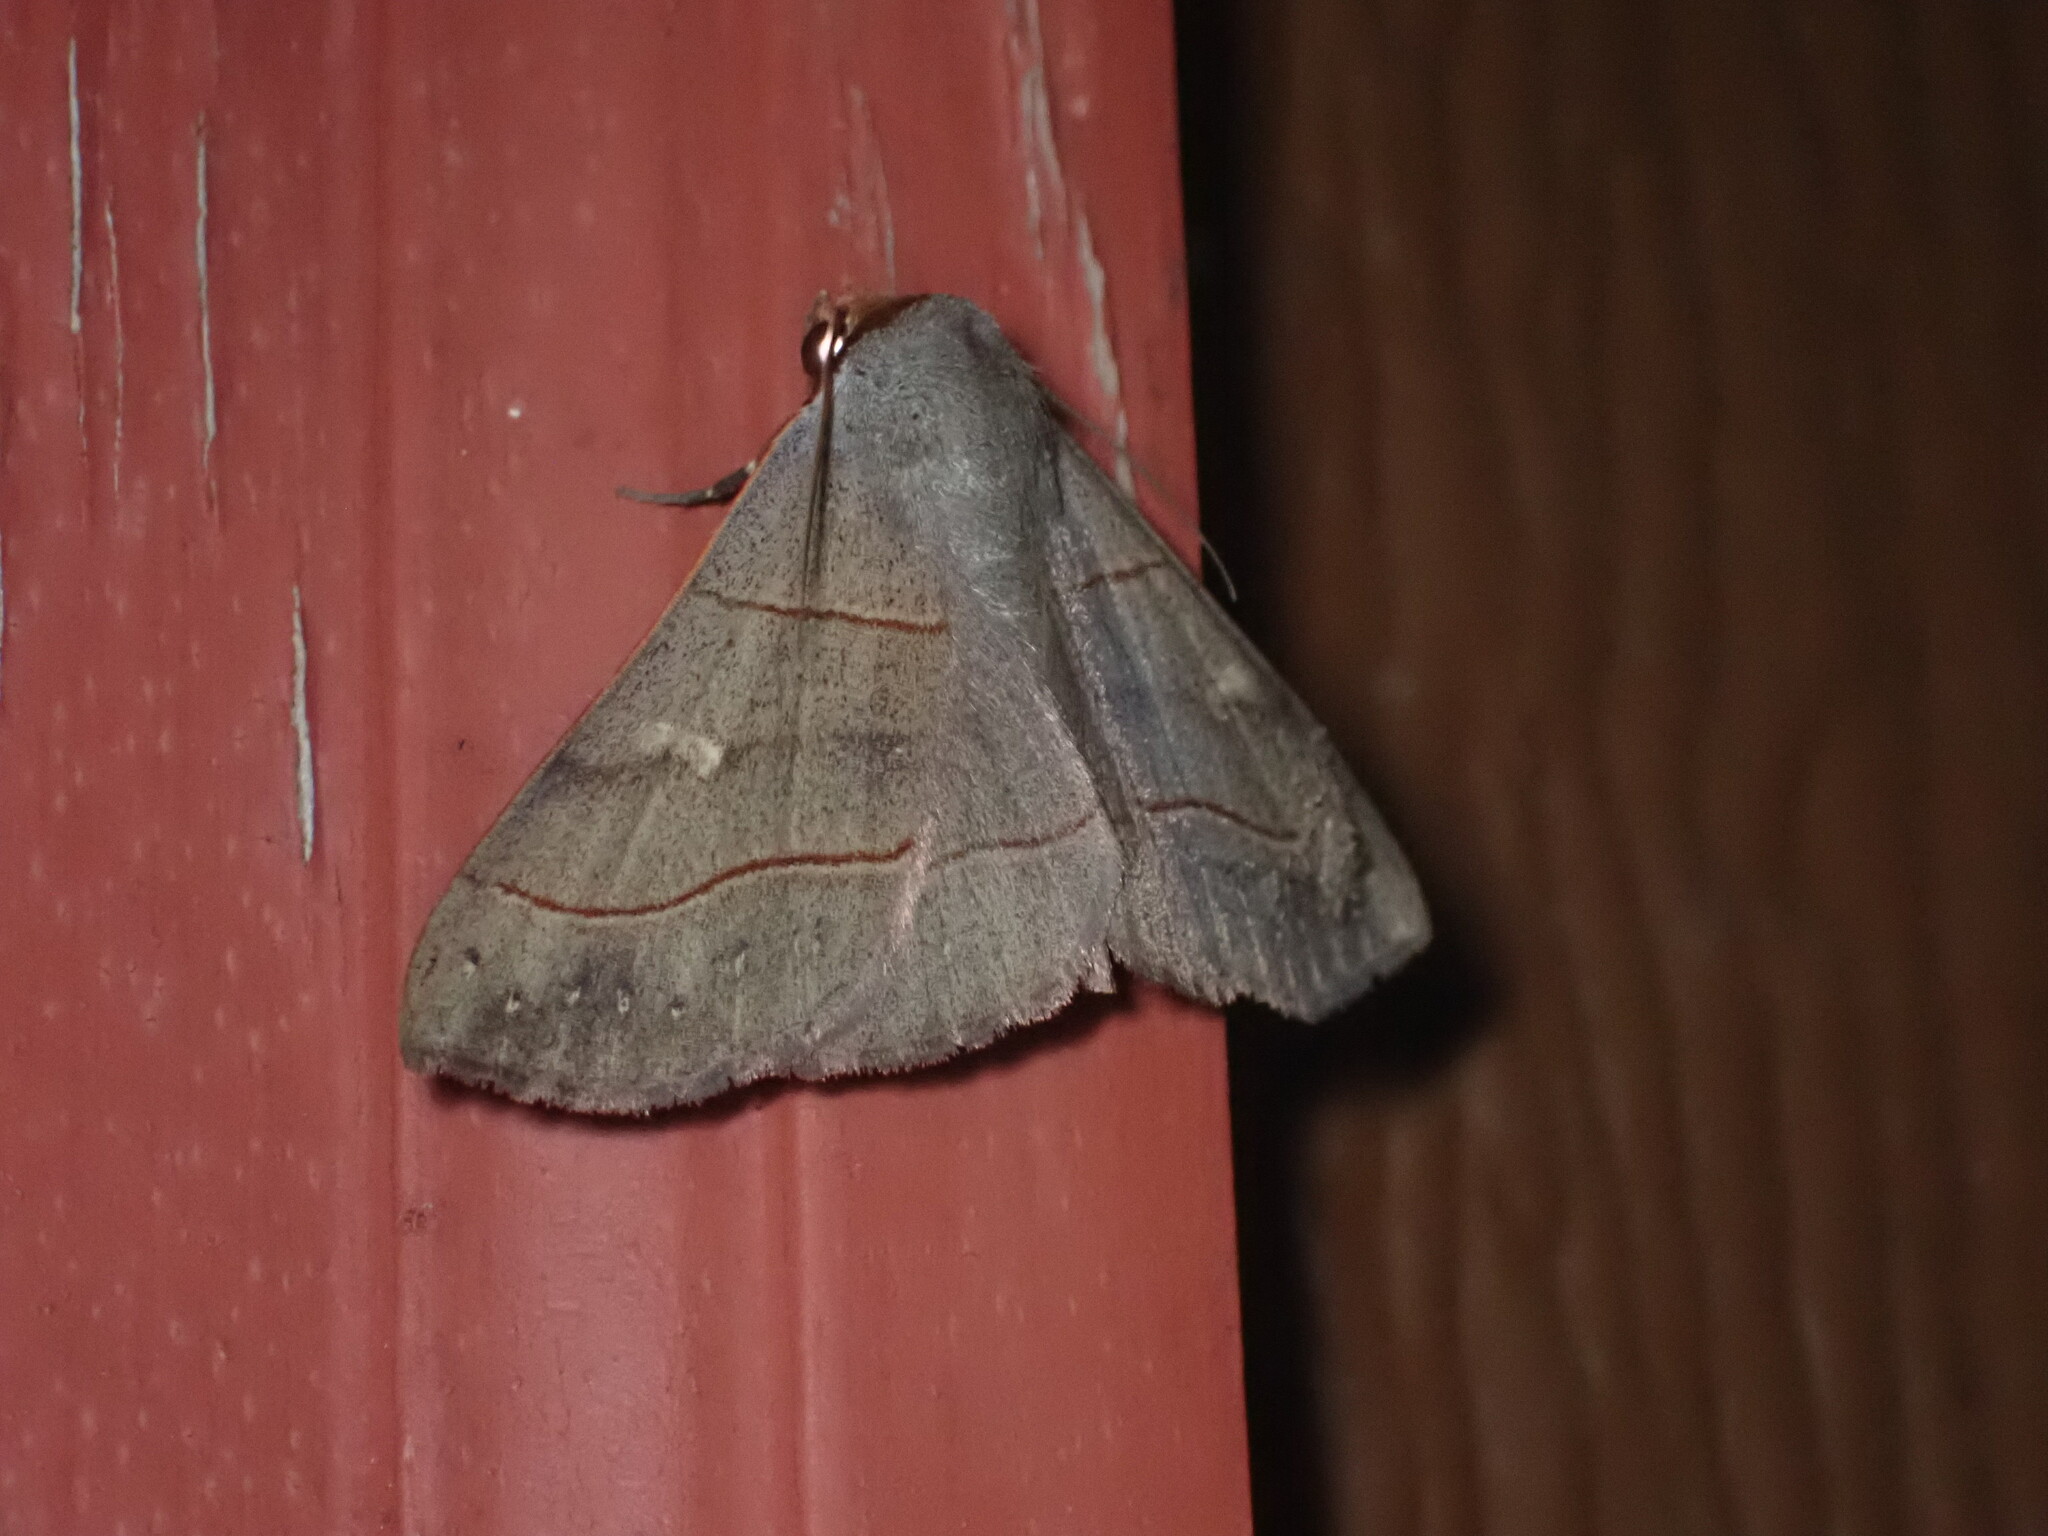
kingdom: Animalia
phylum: Arthropoda
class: Insecta
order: Lepidoptera
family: Erebidae
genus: Panopoda
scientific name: Panopoda rufimargo
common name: Red-lined panopoda moth
